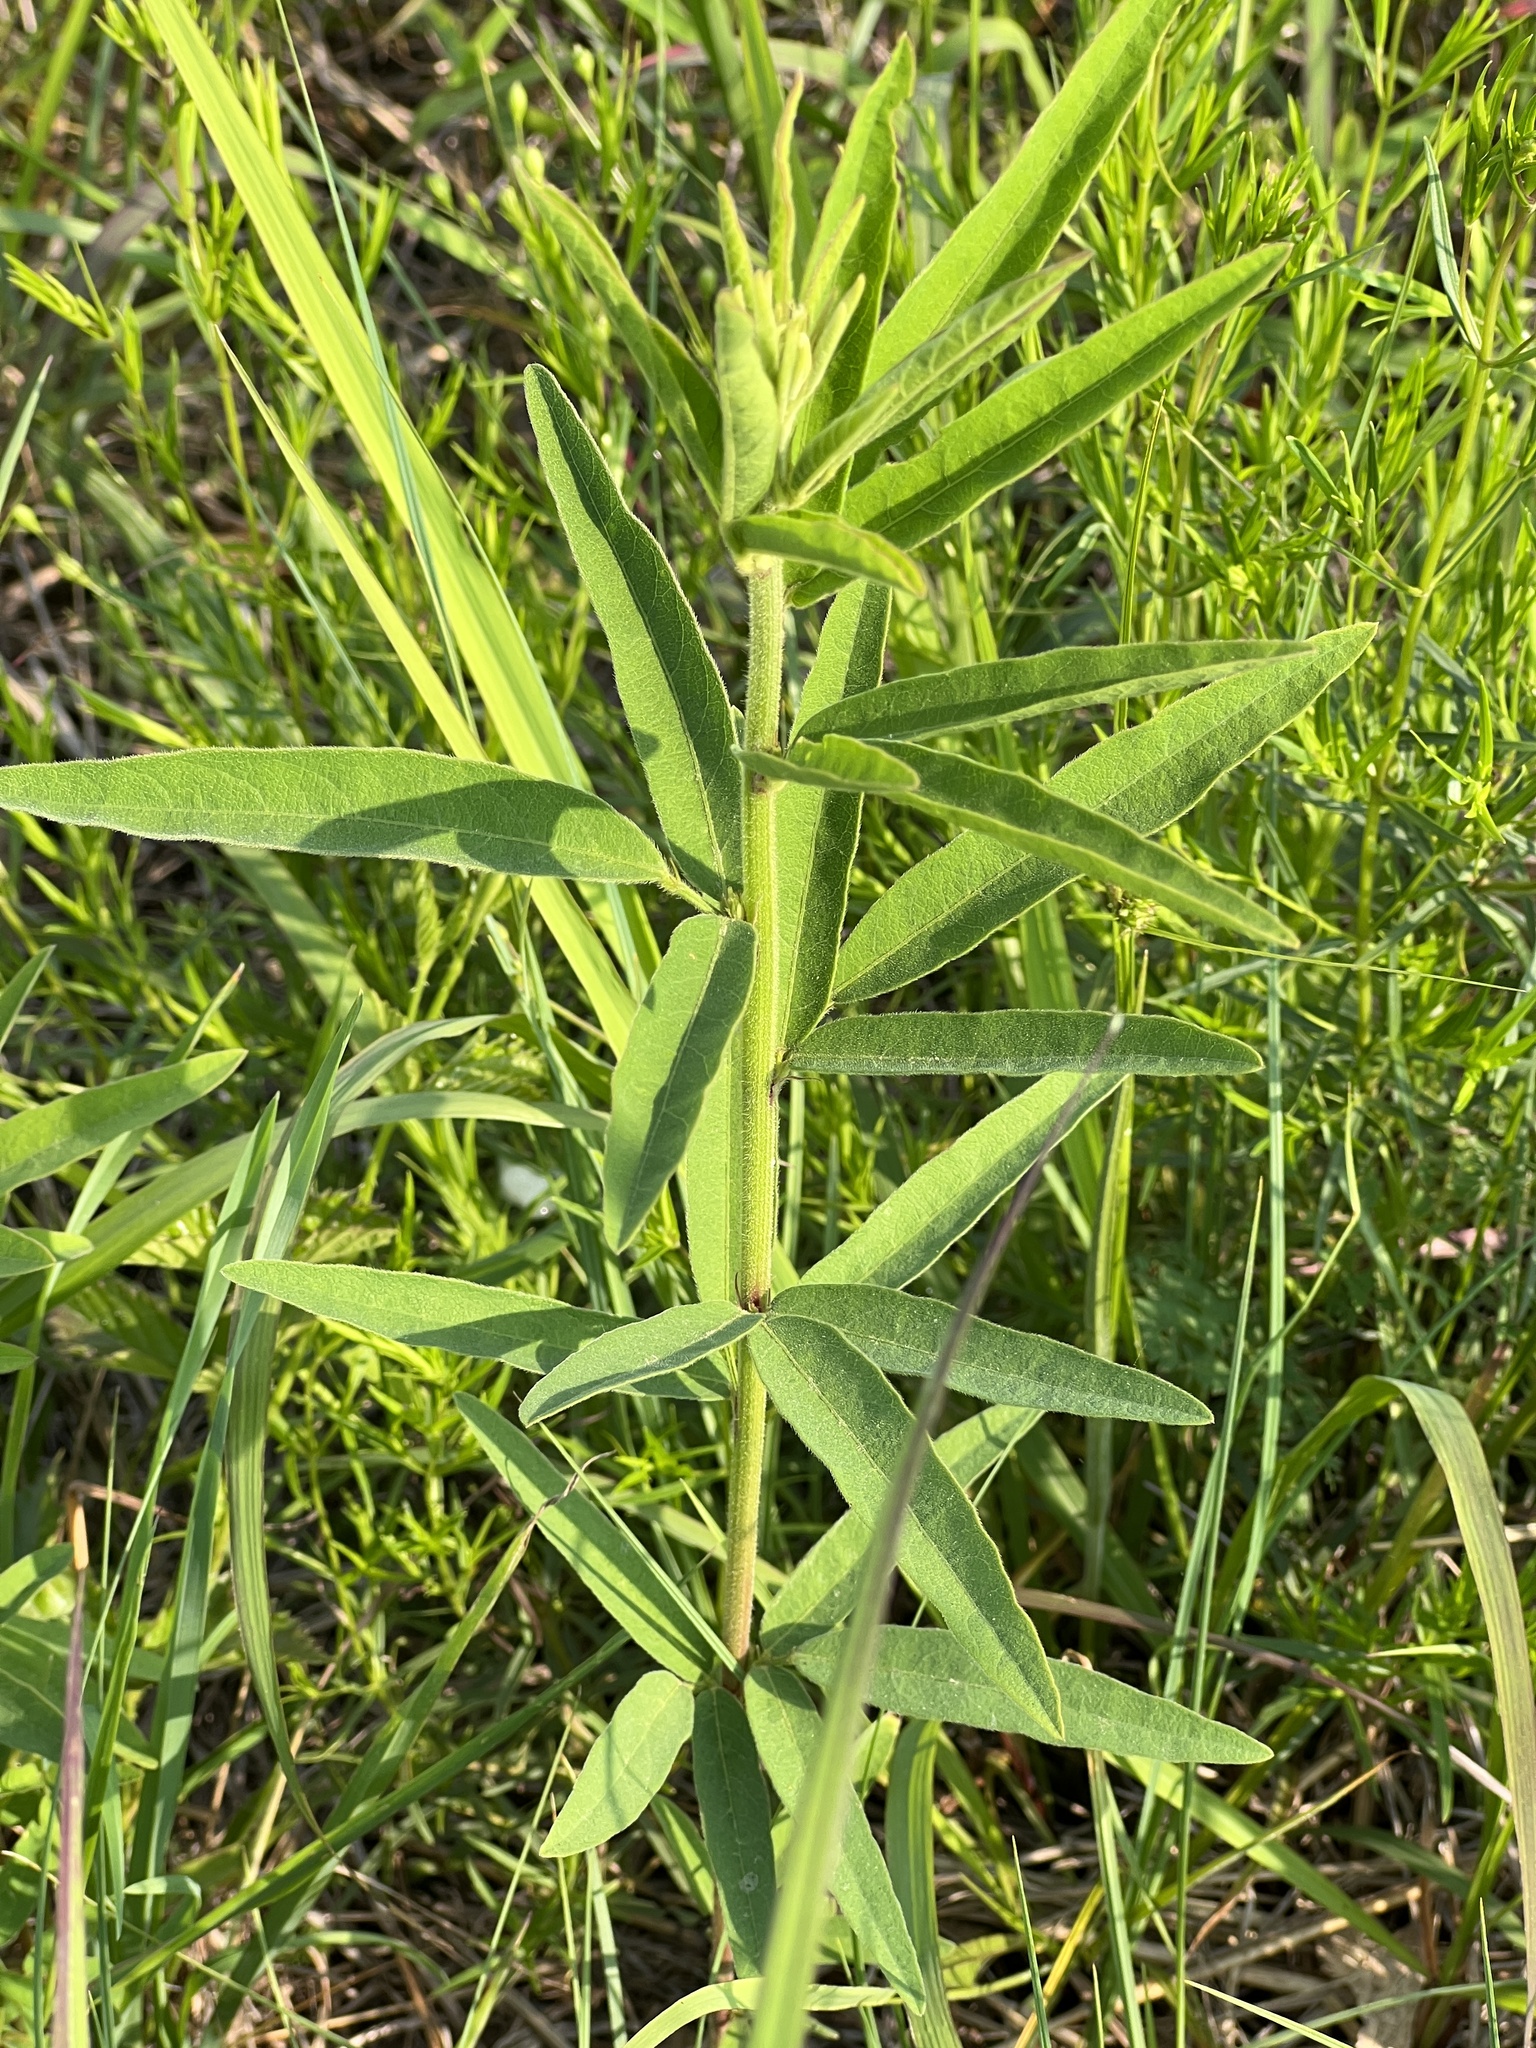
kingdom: Plantae
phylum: Tracheophyta
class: Magnoliopsida
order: Fabales
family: Fabaceae
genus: Desmodium
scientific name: Desmodium sessilifolium
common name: Sessile tick-clover
